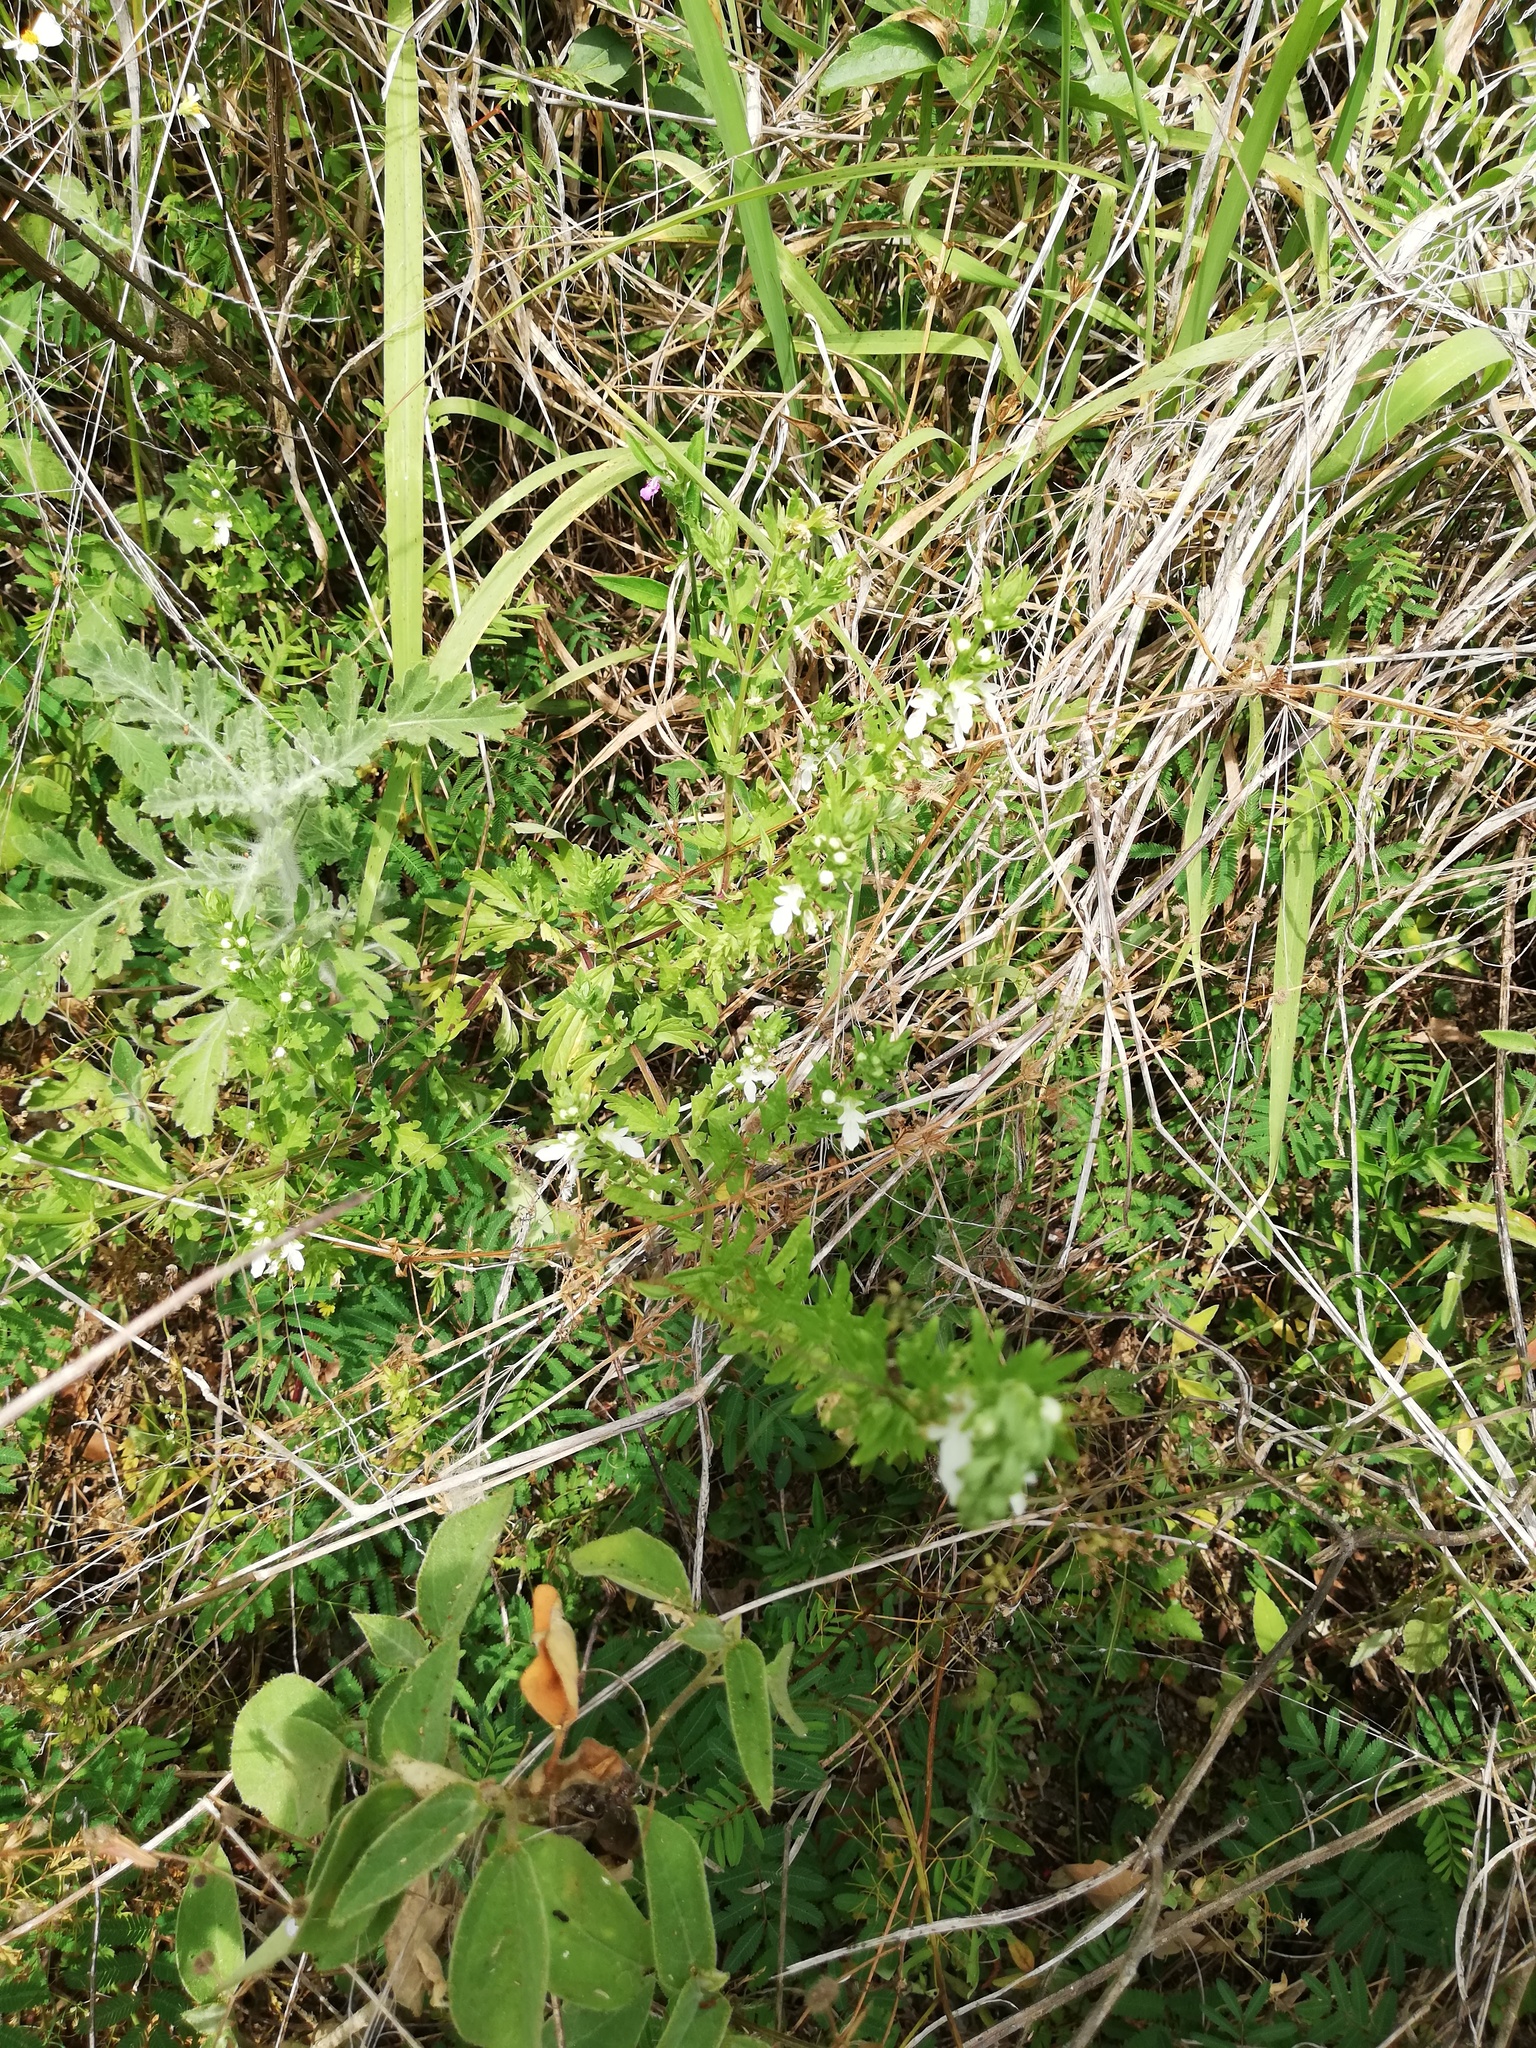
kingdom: Plantae
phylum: Tracheophyta
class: Magnoliopsida
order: Lamiales
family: Lamiaceae
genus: Teucrium
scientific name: Teucrium cubense
